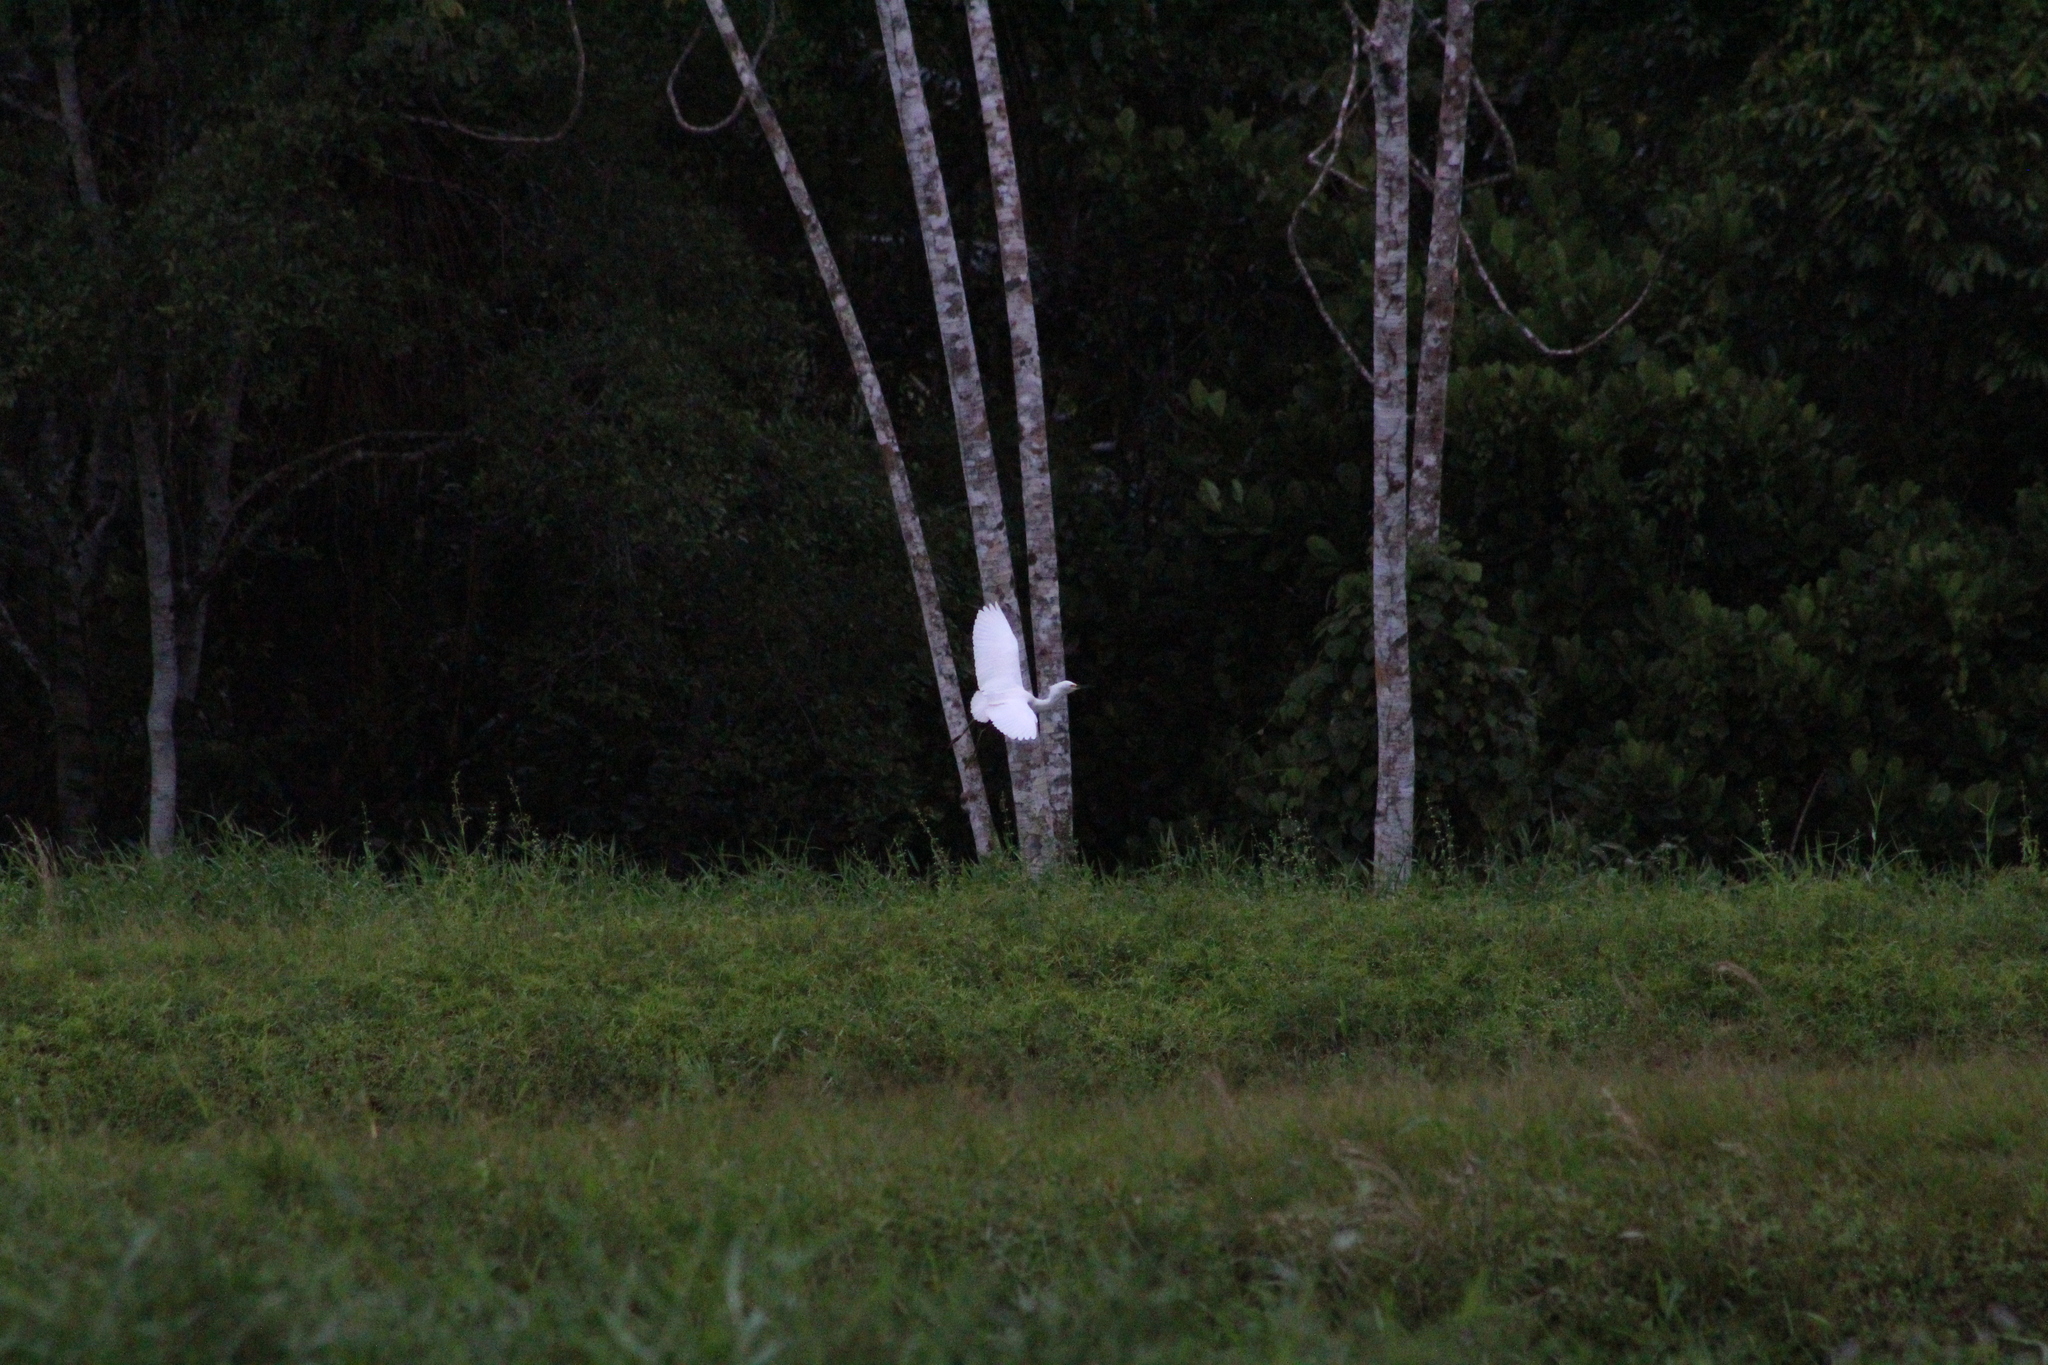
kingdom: Animalia
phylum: Chordata
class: Aves
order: Pelecaniformes
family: Ardeidae
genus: Egretta
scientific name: Egretta thula
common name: Snowy egret
